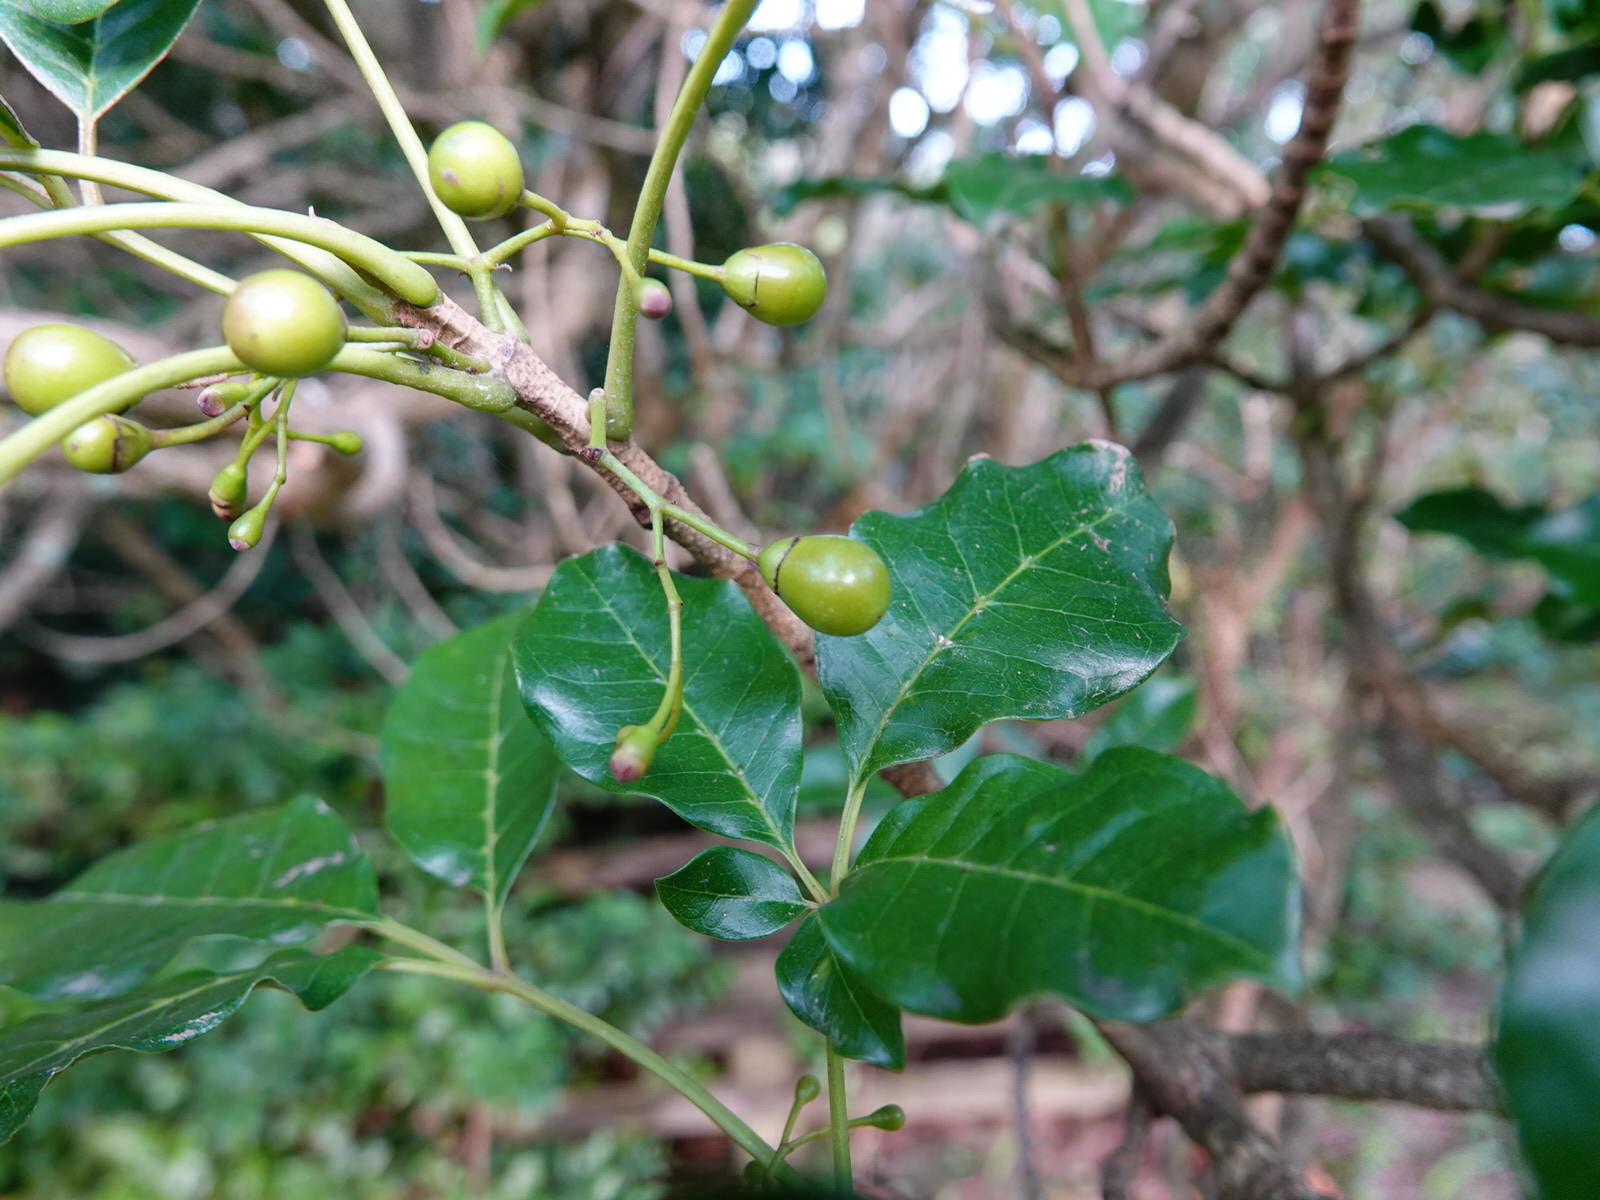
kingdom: Plantae
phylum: Tracheophyta
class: Magnoliopsida
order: Lamiales
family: Lamiaceae
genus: Vitex
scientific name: Vitex lucens
